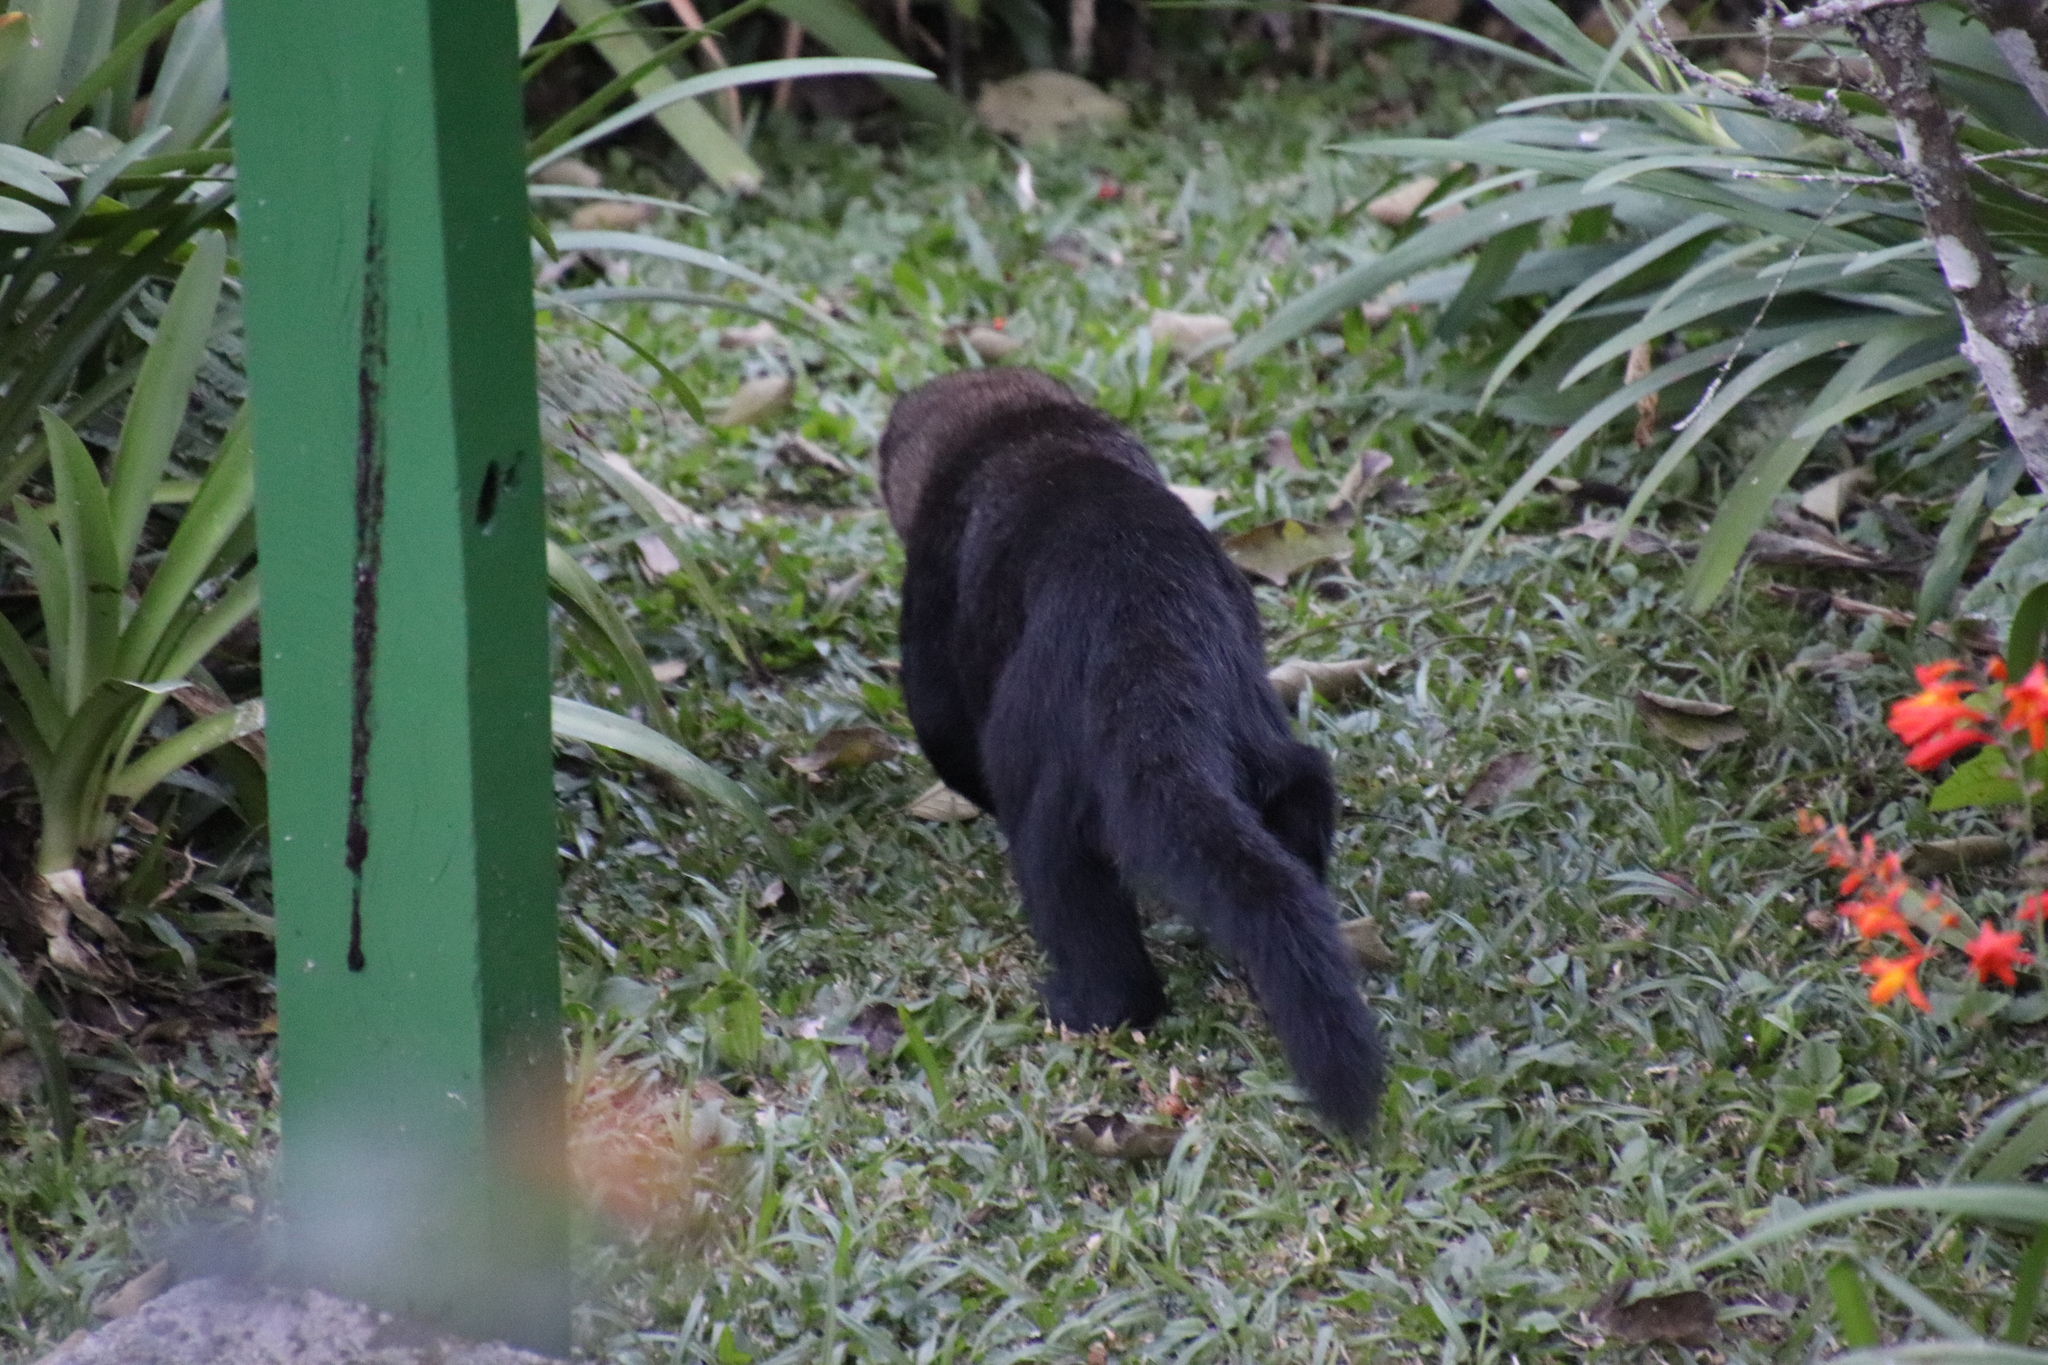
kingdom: Animalia
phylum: Chordata
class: Mammalia
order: Carnivora
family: Mustelidae
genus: Eira
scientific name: Eira barbara
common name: Tayra
